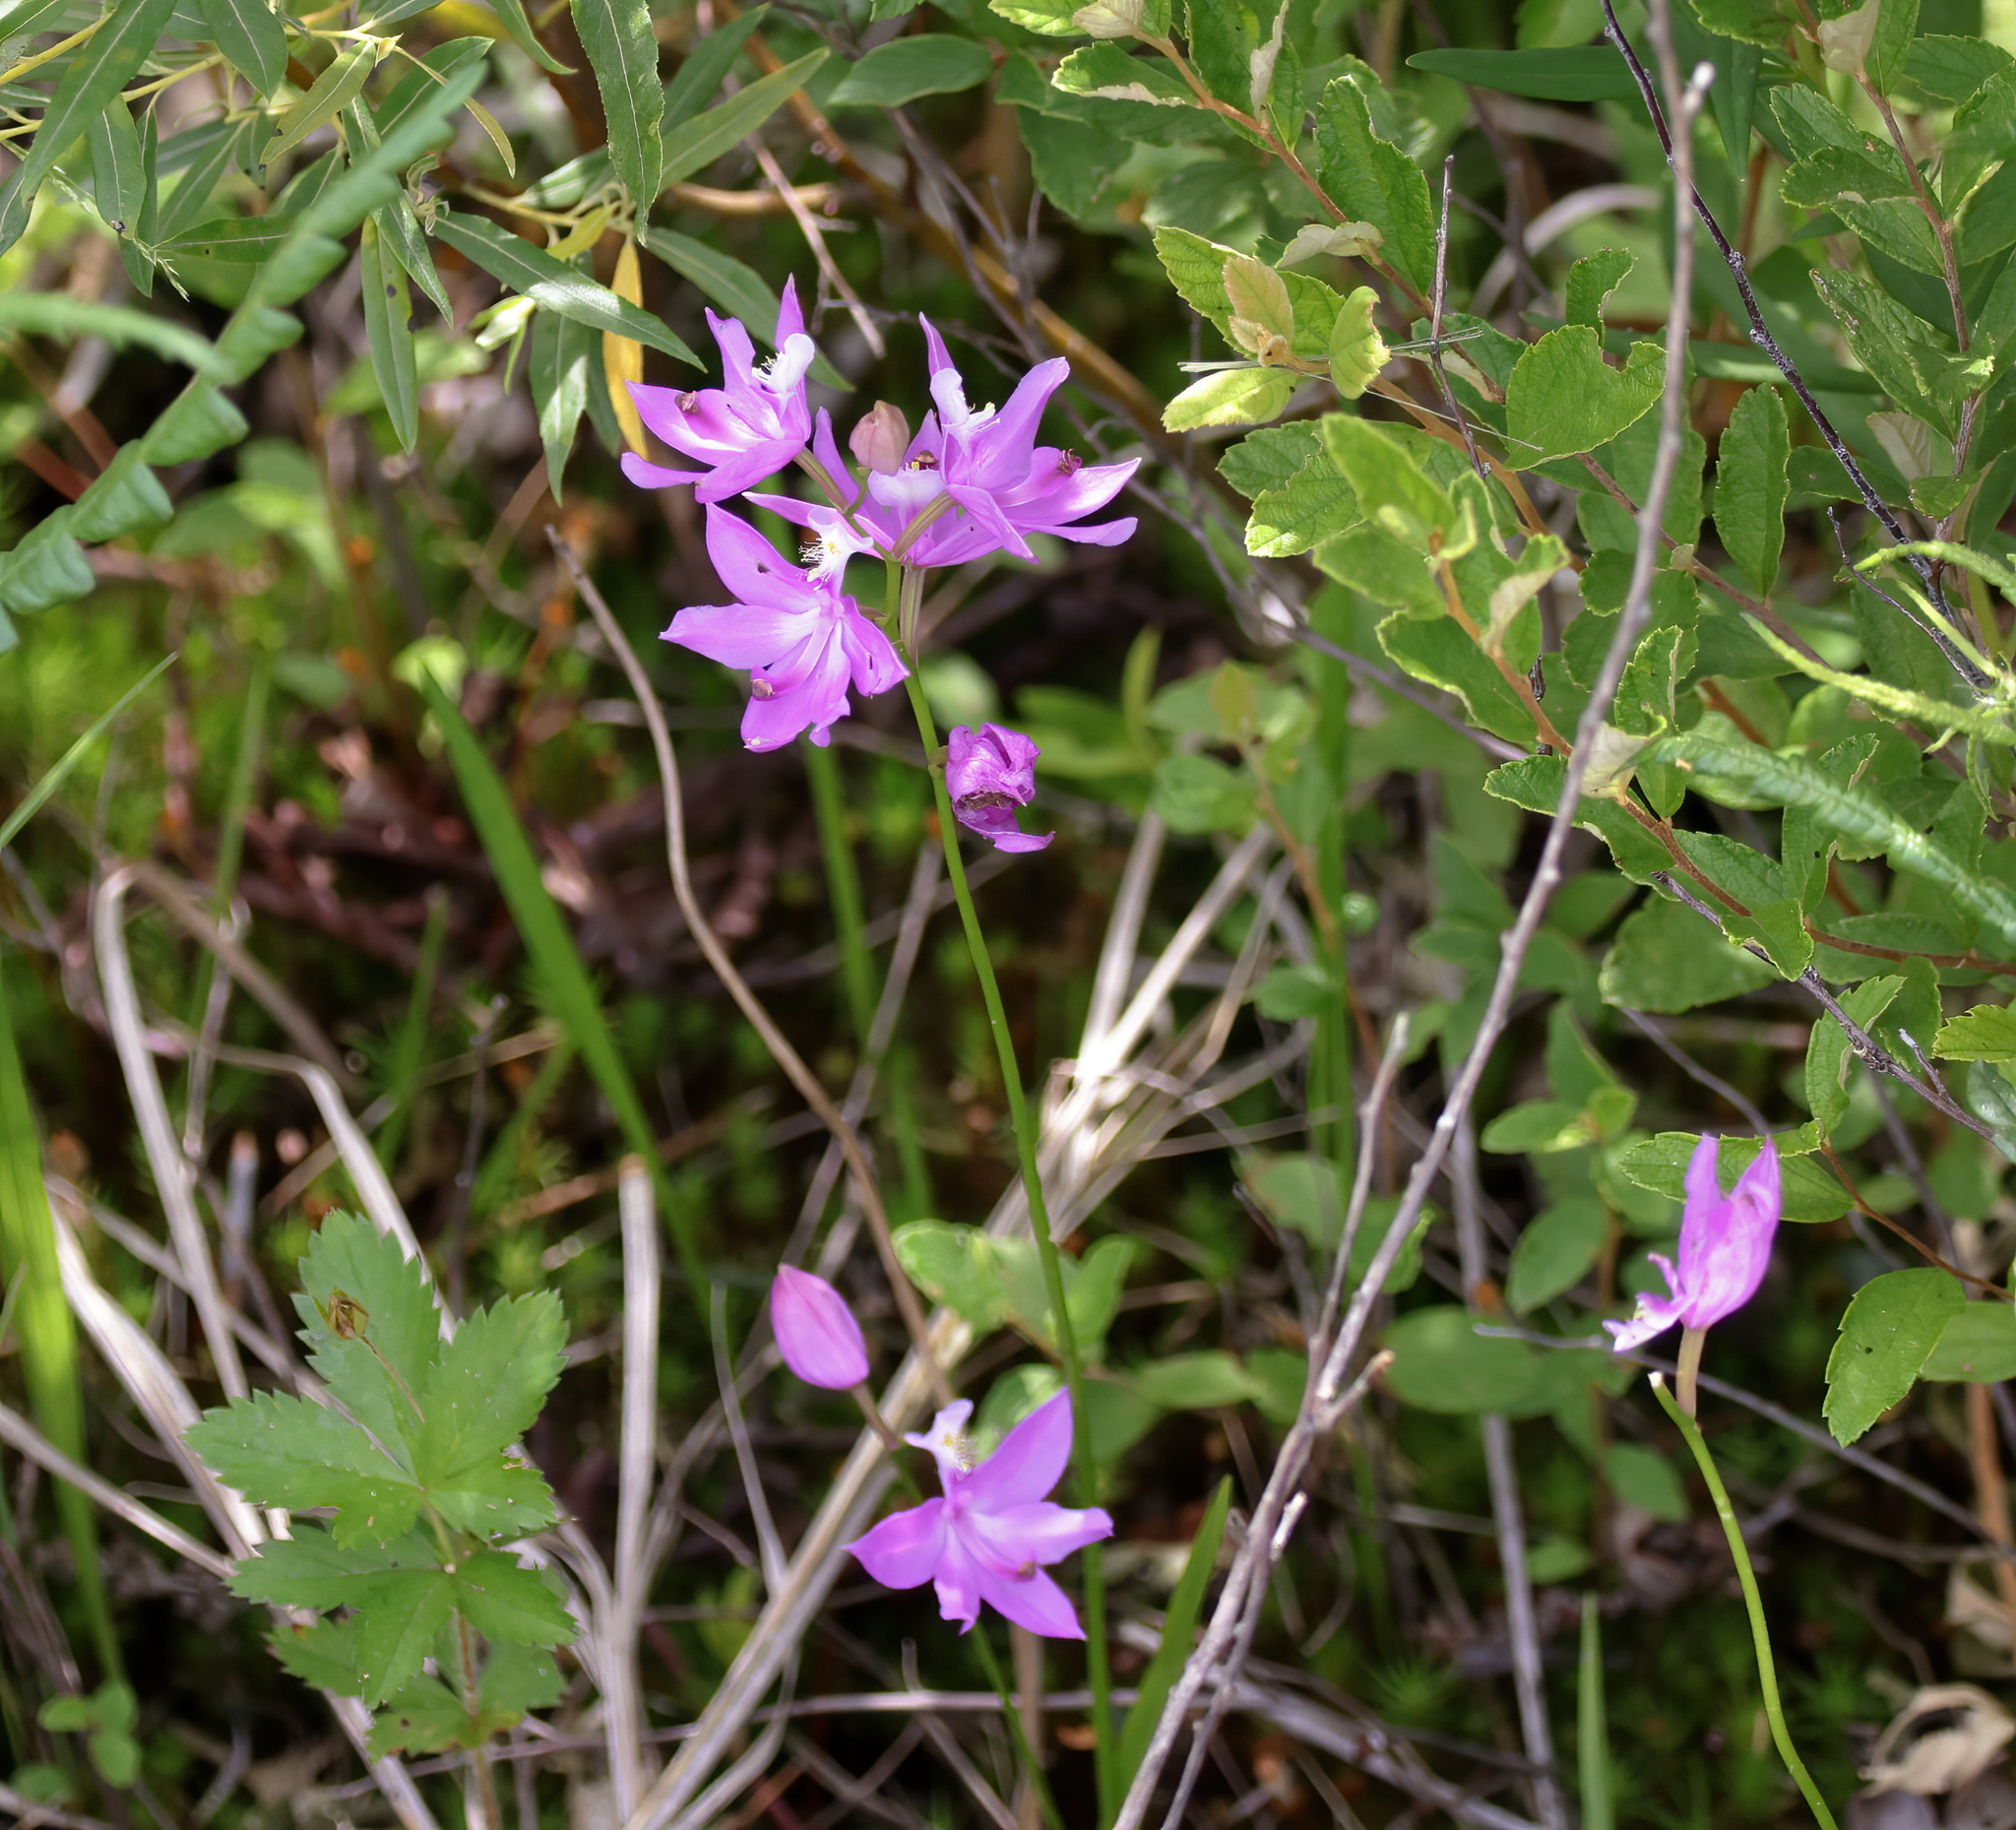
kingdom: Plantae
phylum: Tracheophyta
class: Liliopsida
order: Asparagales
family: Orchidaceae
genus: Calopogon
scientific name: Calopogon tuberosus
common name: Grass-pink
